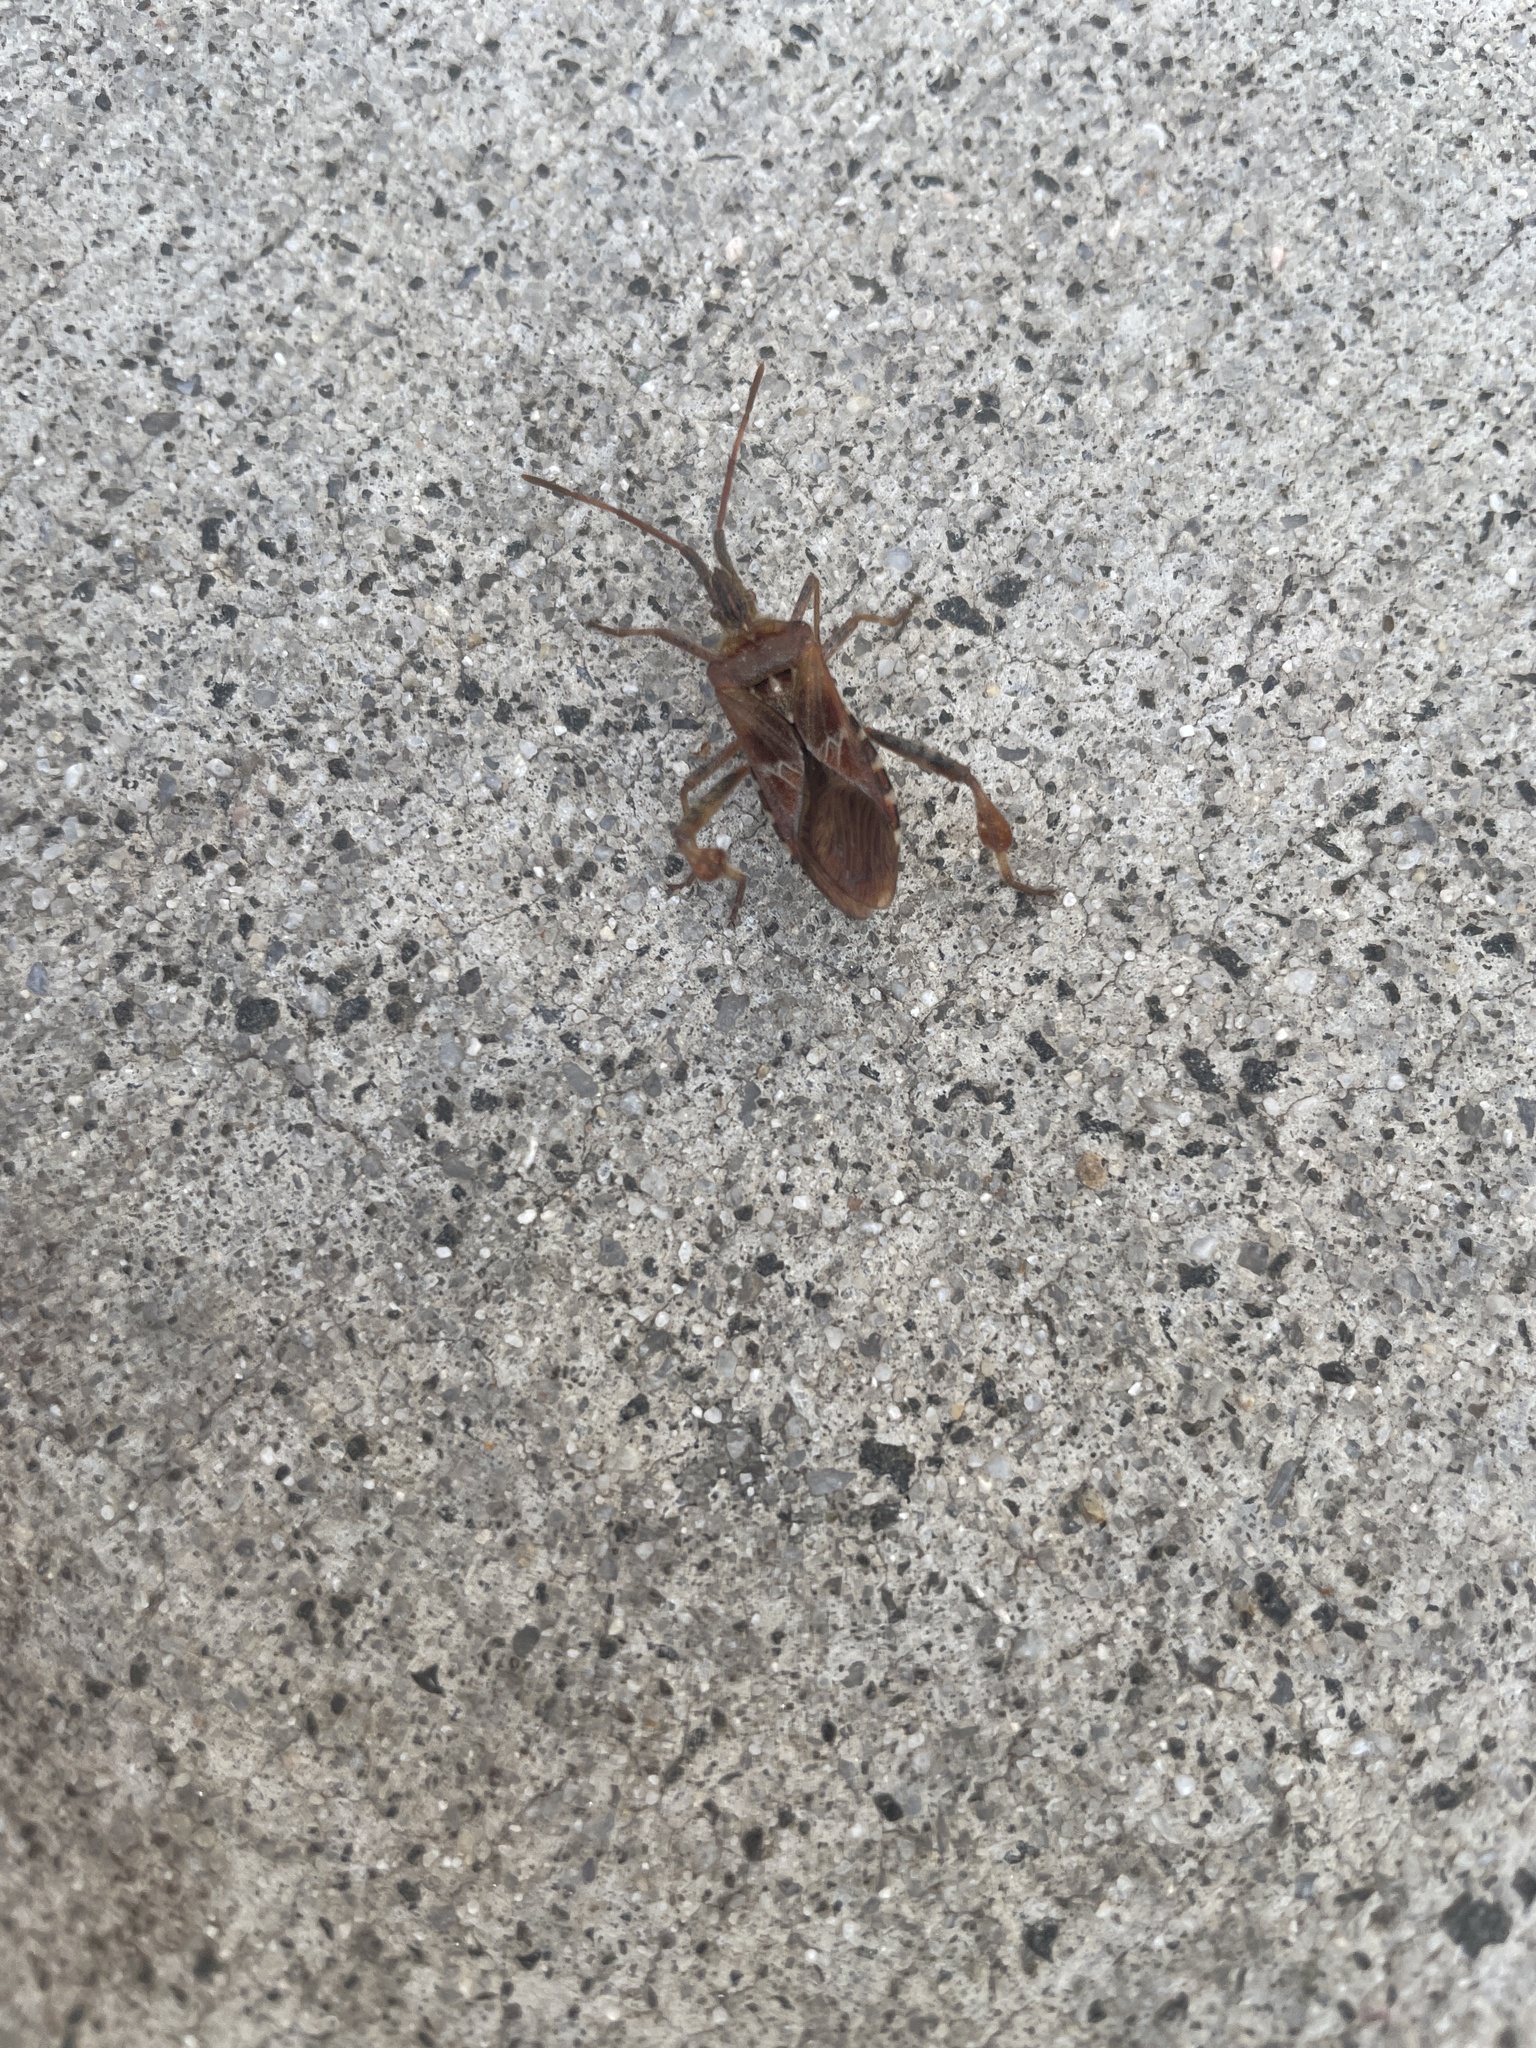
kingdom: Animalia
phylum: Arthropoda
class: Insecta
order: Hemiptera
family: Coreidae
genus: Leptoglossus
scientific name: Leptoglossus occidentalis
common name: Western conifer-seed bug
